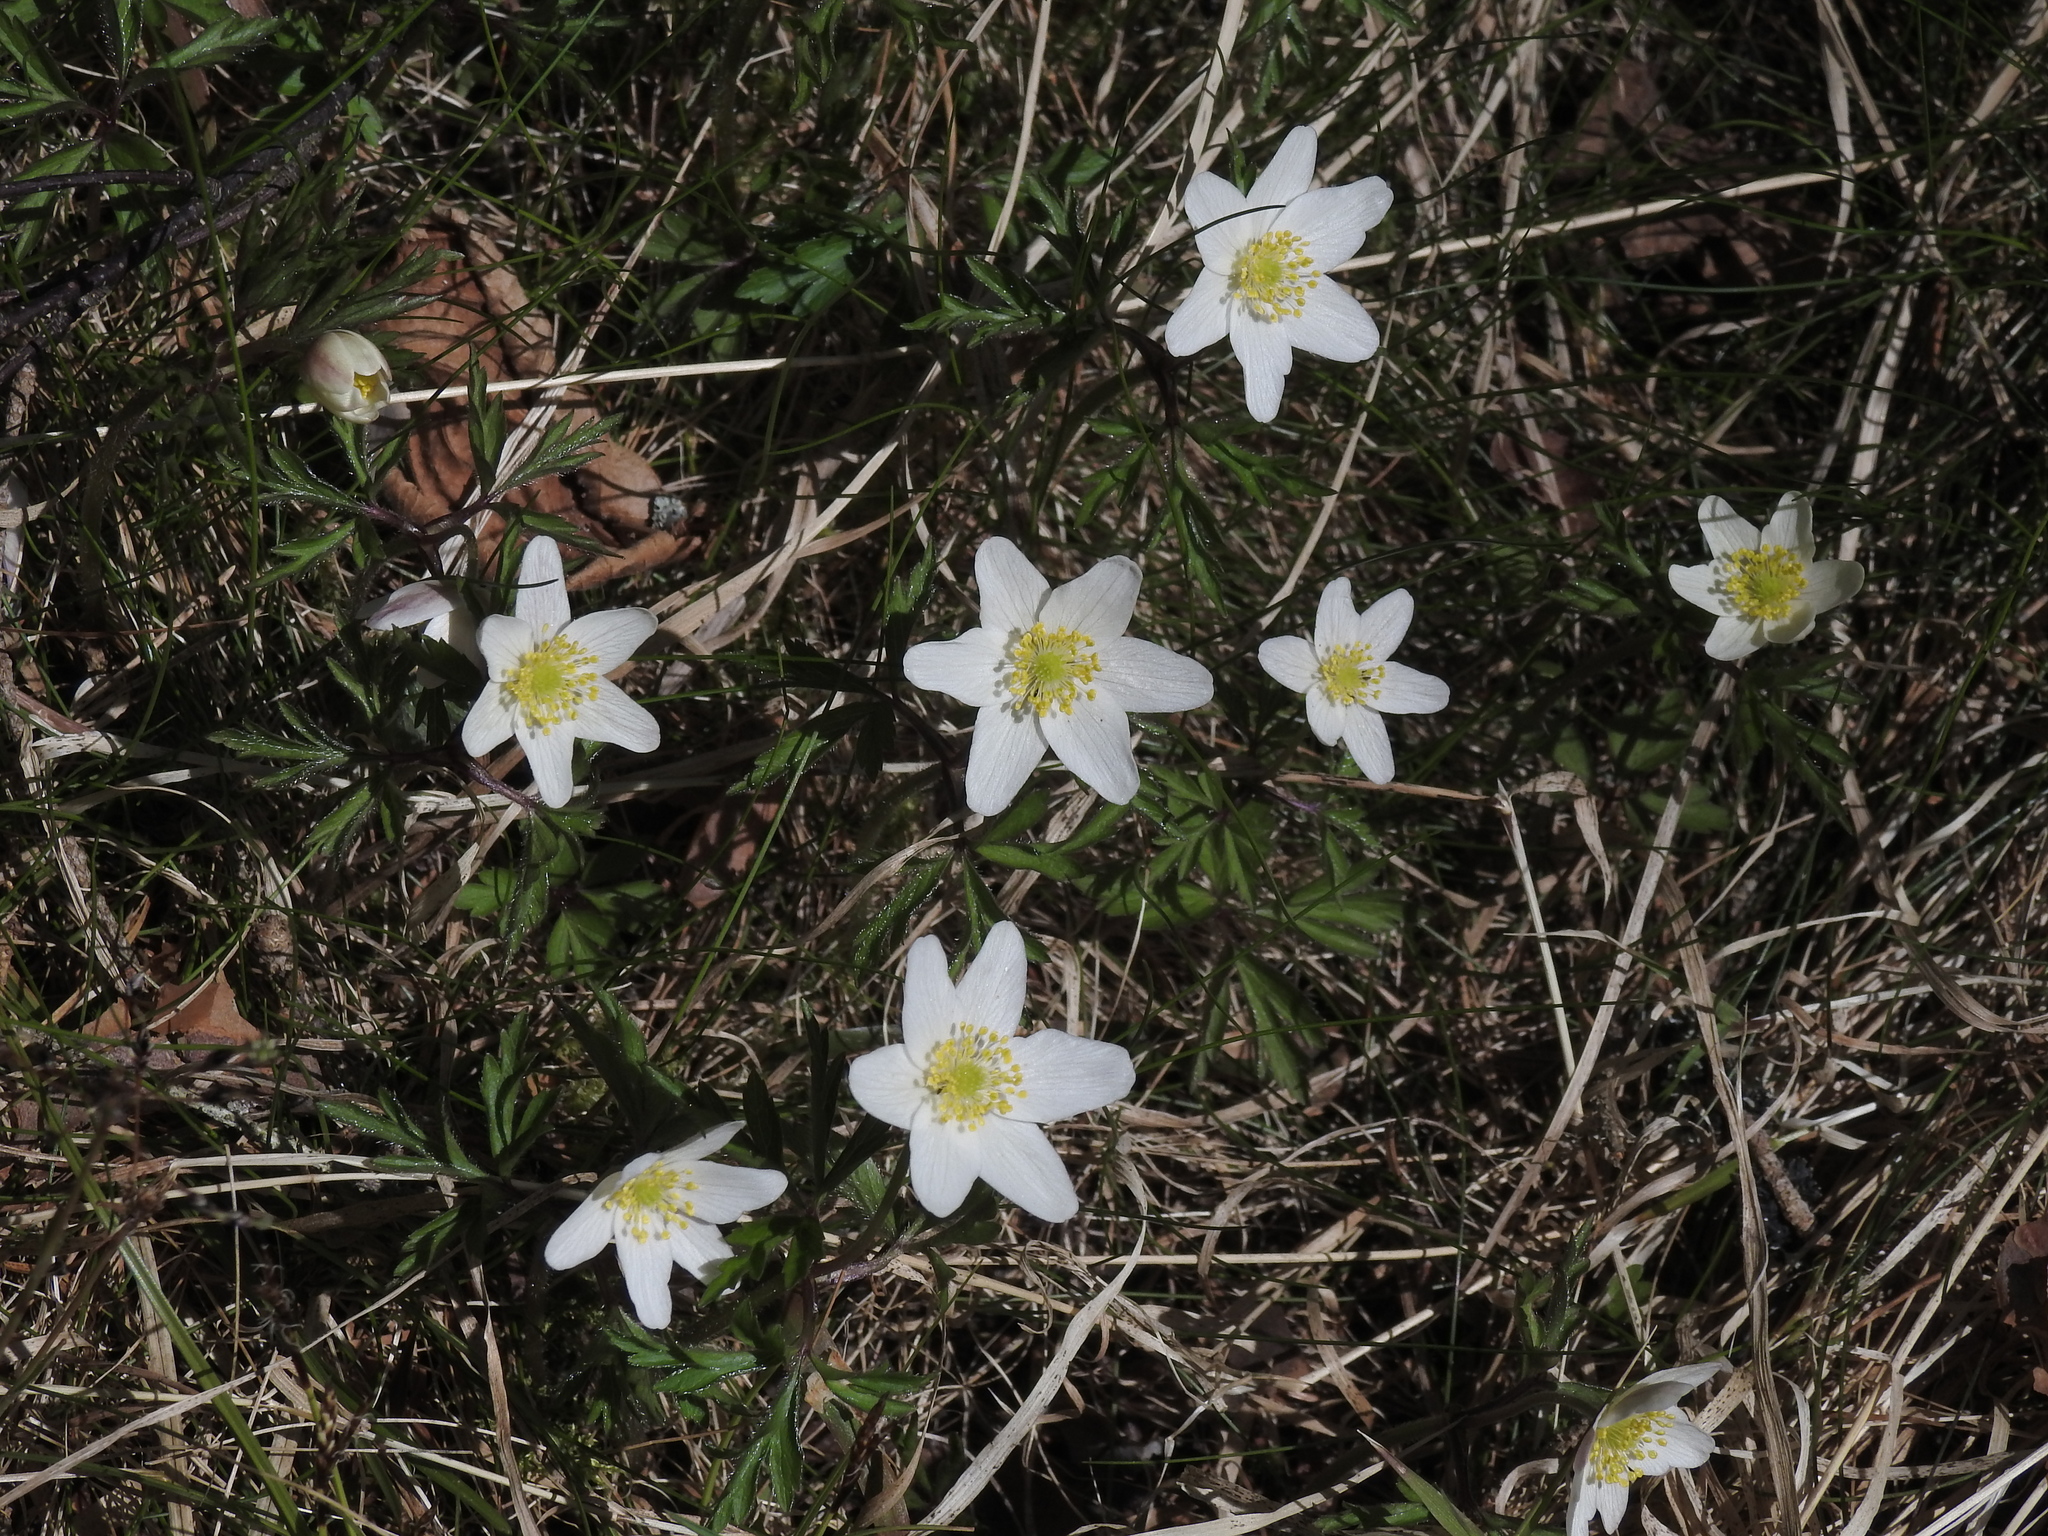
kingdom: Plantae
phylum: Tracheophyta
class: Magnoliopsida
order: Ranunculales
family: Ranunculaceae
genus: Anemone
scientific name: Anemone nemorosa
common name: Wood anemone
